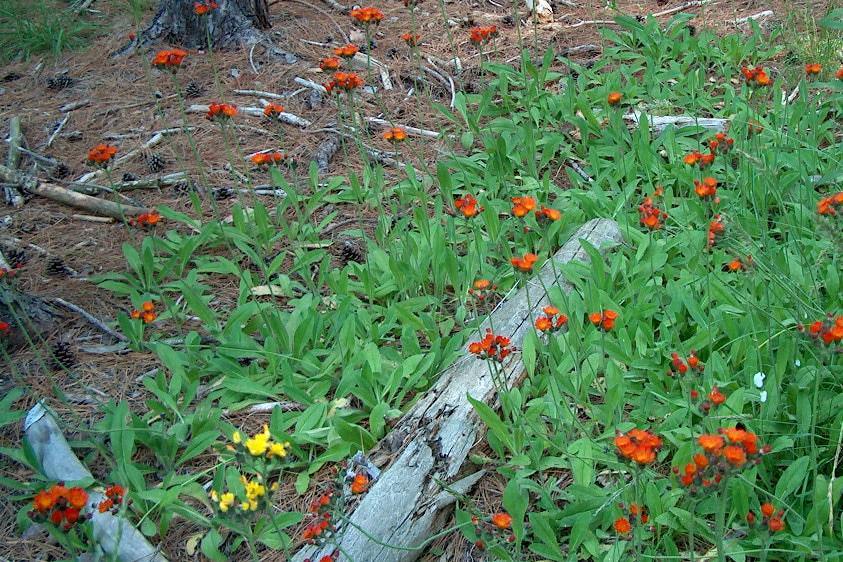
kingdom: Plantae
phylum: Tracheophyta
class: Magnoliopsida
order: Asterales
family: Asteraceae
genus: Pilosella
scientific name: Pilosella aurantiaca
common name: Fox-and-cubs
